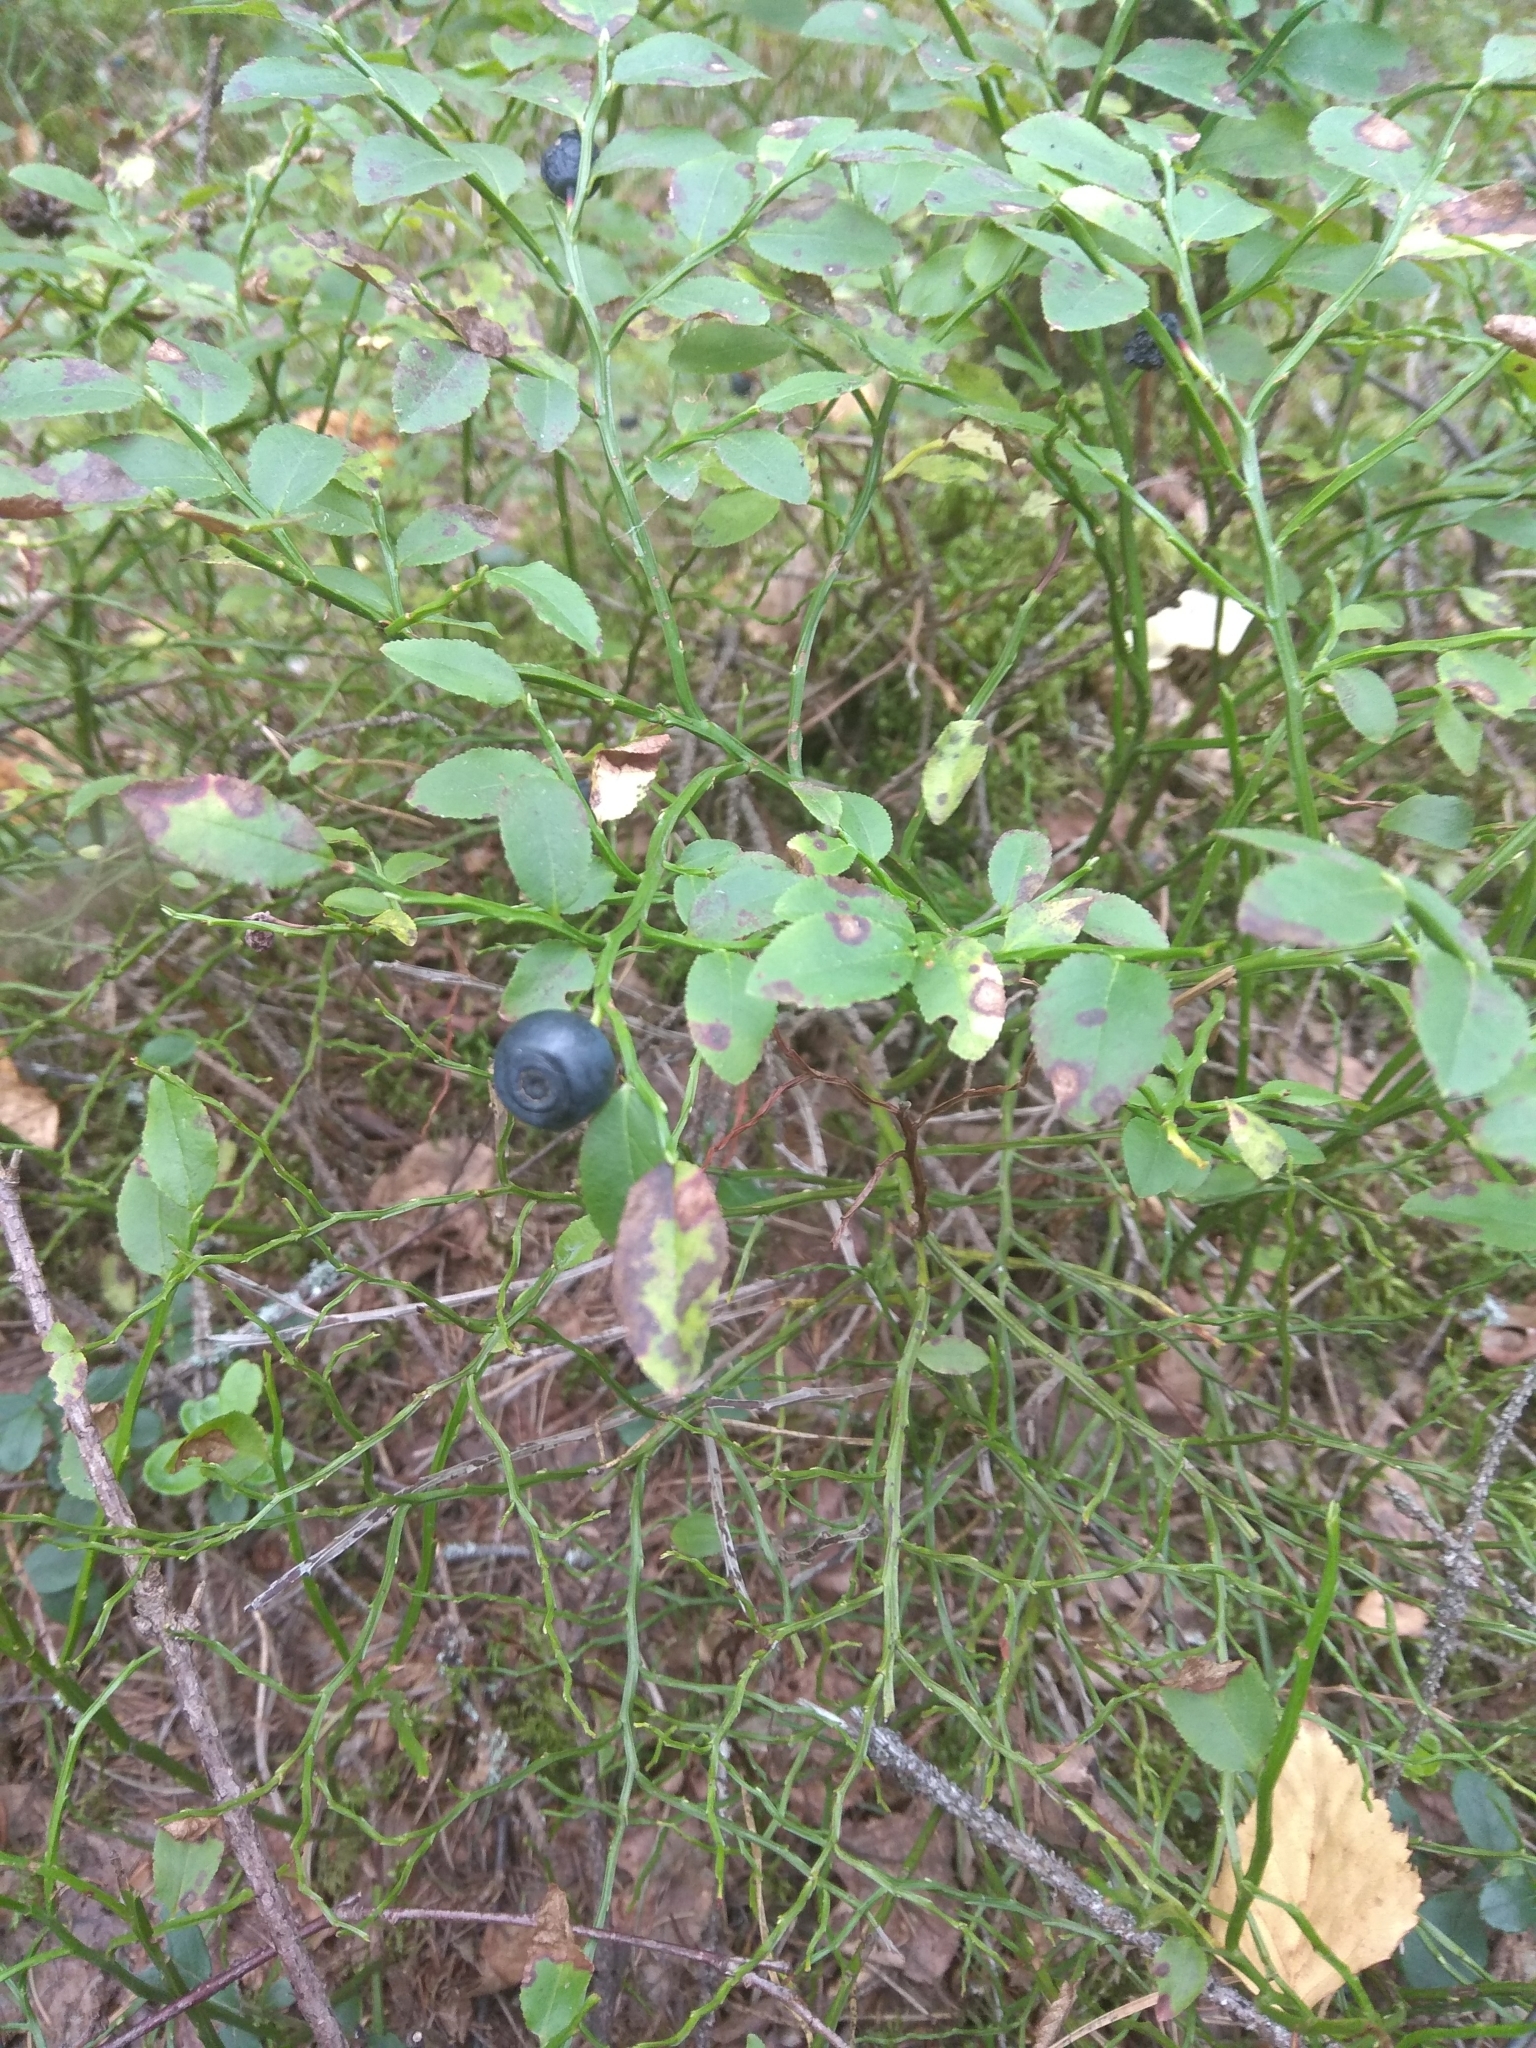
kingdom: Plantae
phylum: Tracheophyta
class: Magnoliopsida
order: Ericales
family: Ericaceae
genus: Vaccinium
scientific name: Vaccinium myrtillus
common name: Bilberry
